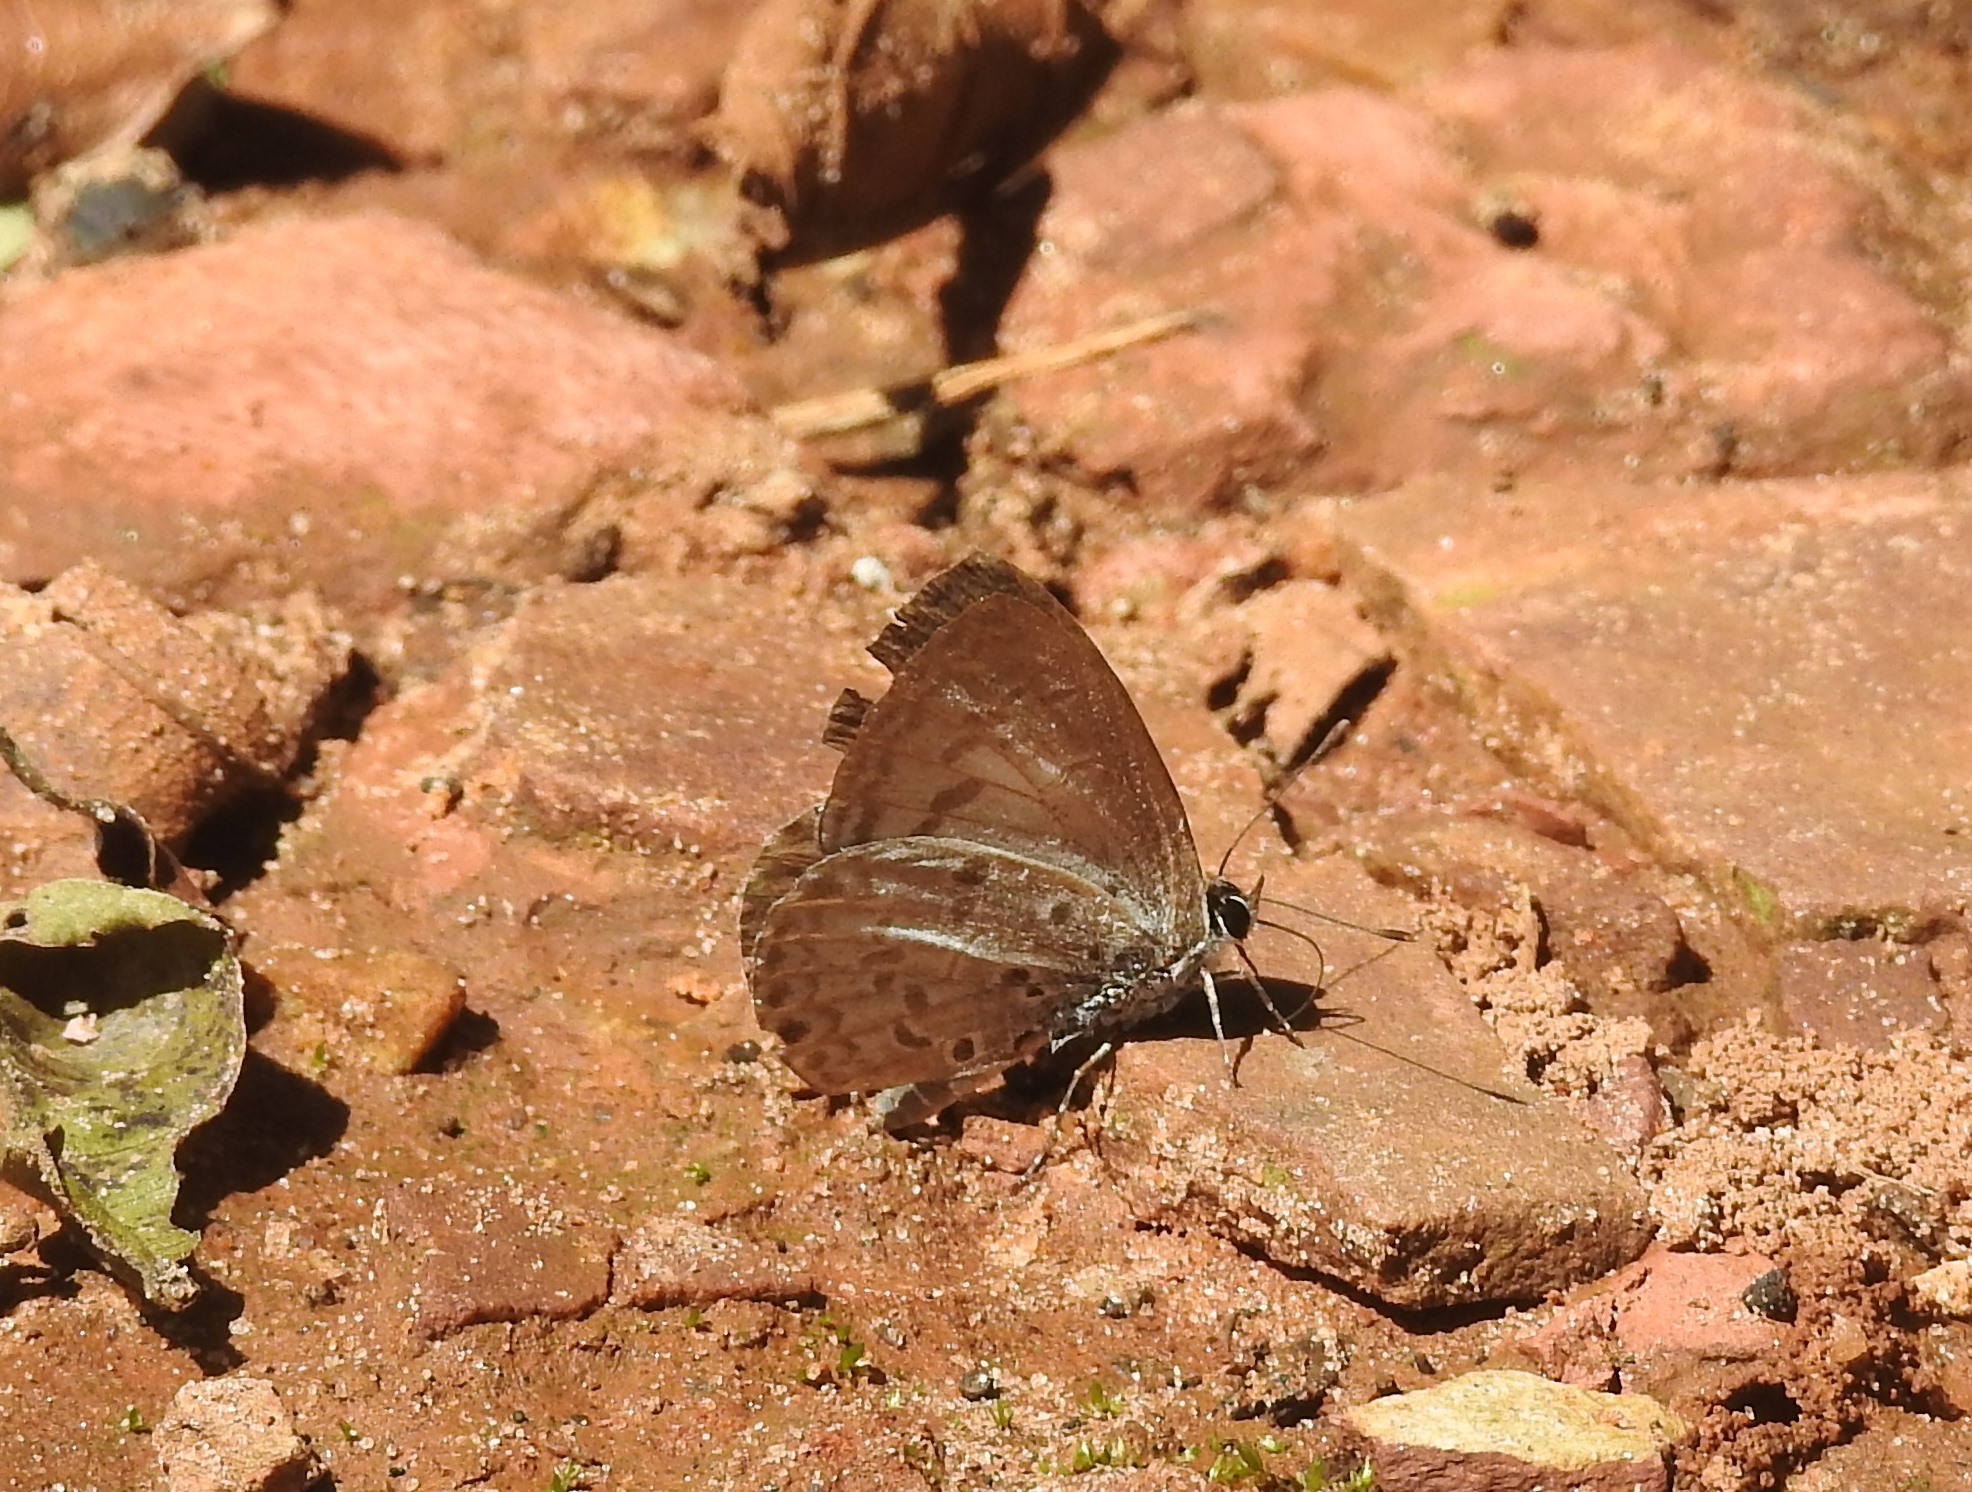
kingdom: Animalia
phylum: Arthropoda
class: Insecta
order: Lepidoptera
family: Lycaenidae
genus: Acytolepis
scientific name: Acytolepis puspa
